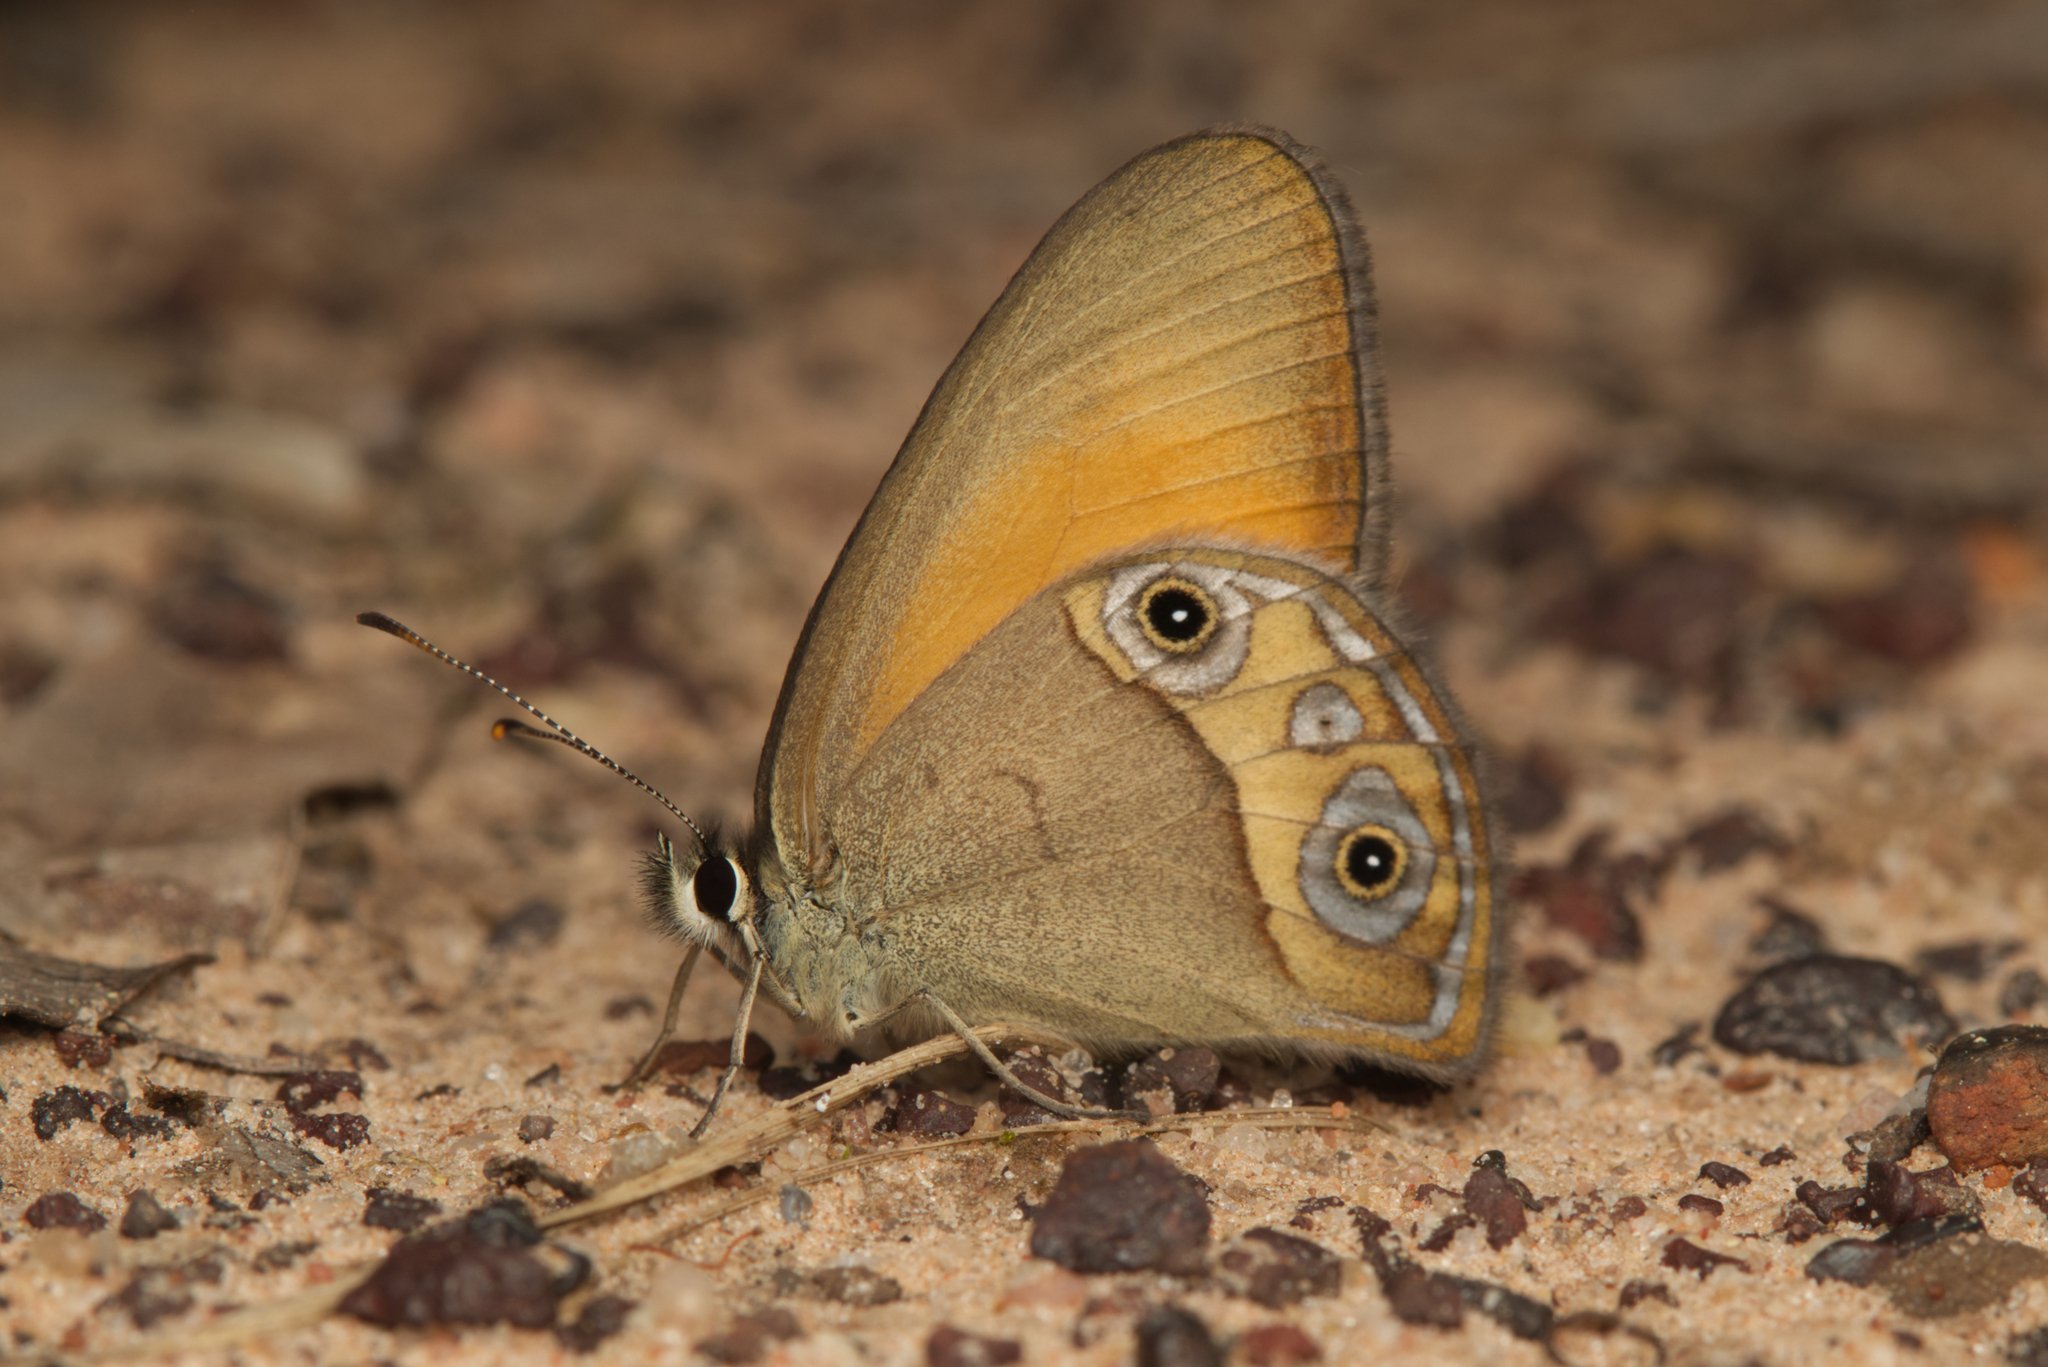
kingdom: Animalia
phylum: Arthropoda
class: Insecta
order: Lepidoptera
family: Nymphalidae
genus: Hypocysta
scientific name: Hypocysta adiante
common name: Orange ringlet
